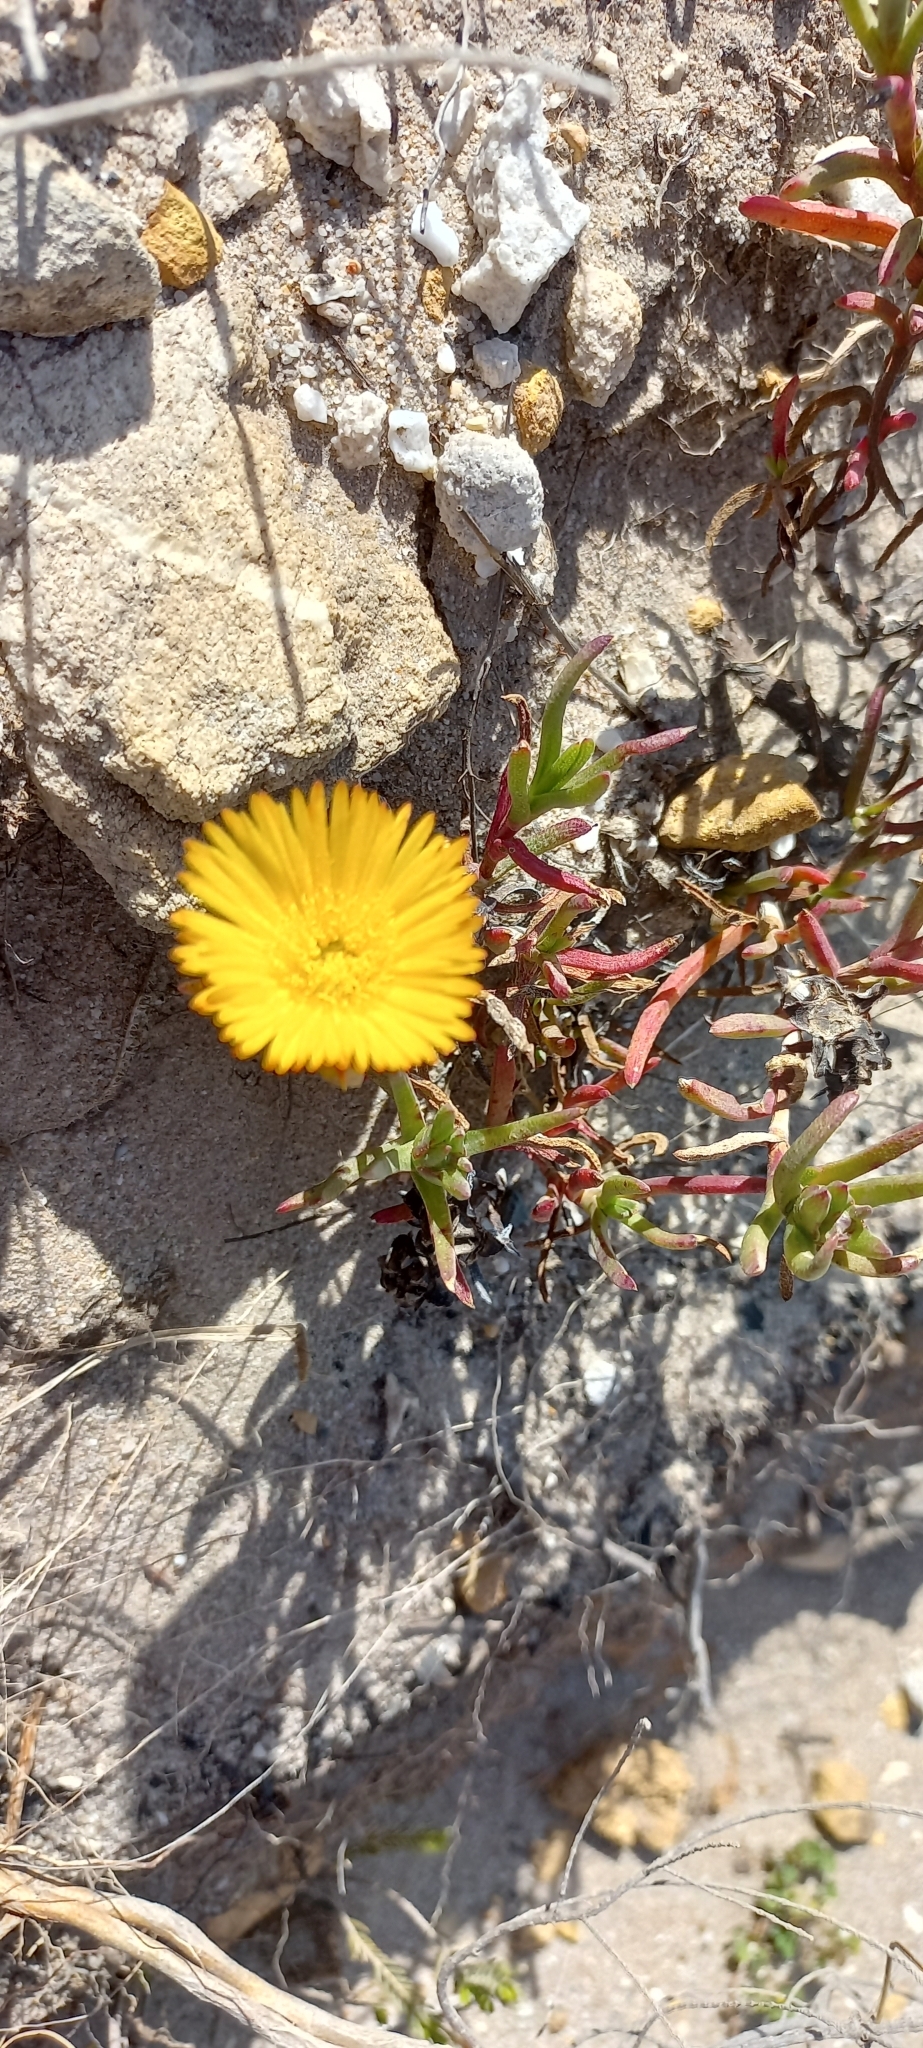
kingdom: Plantae
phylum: Tracheophyta
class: Magnoliopsida
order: Caryophyllales
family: Aizoaceae
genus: Lampranthus
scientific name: Lampranthus bicolor
